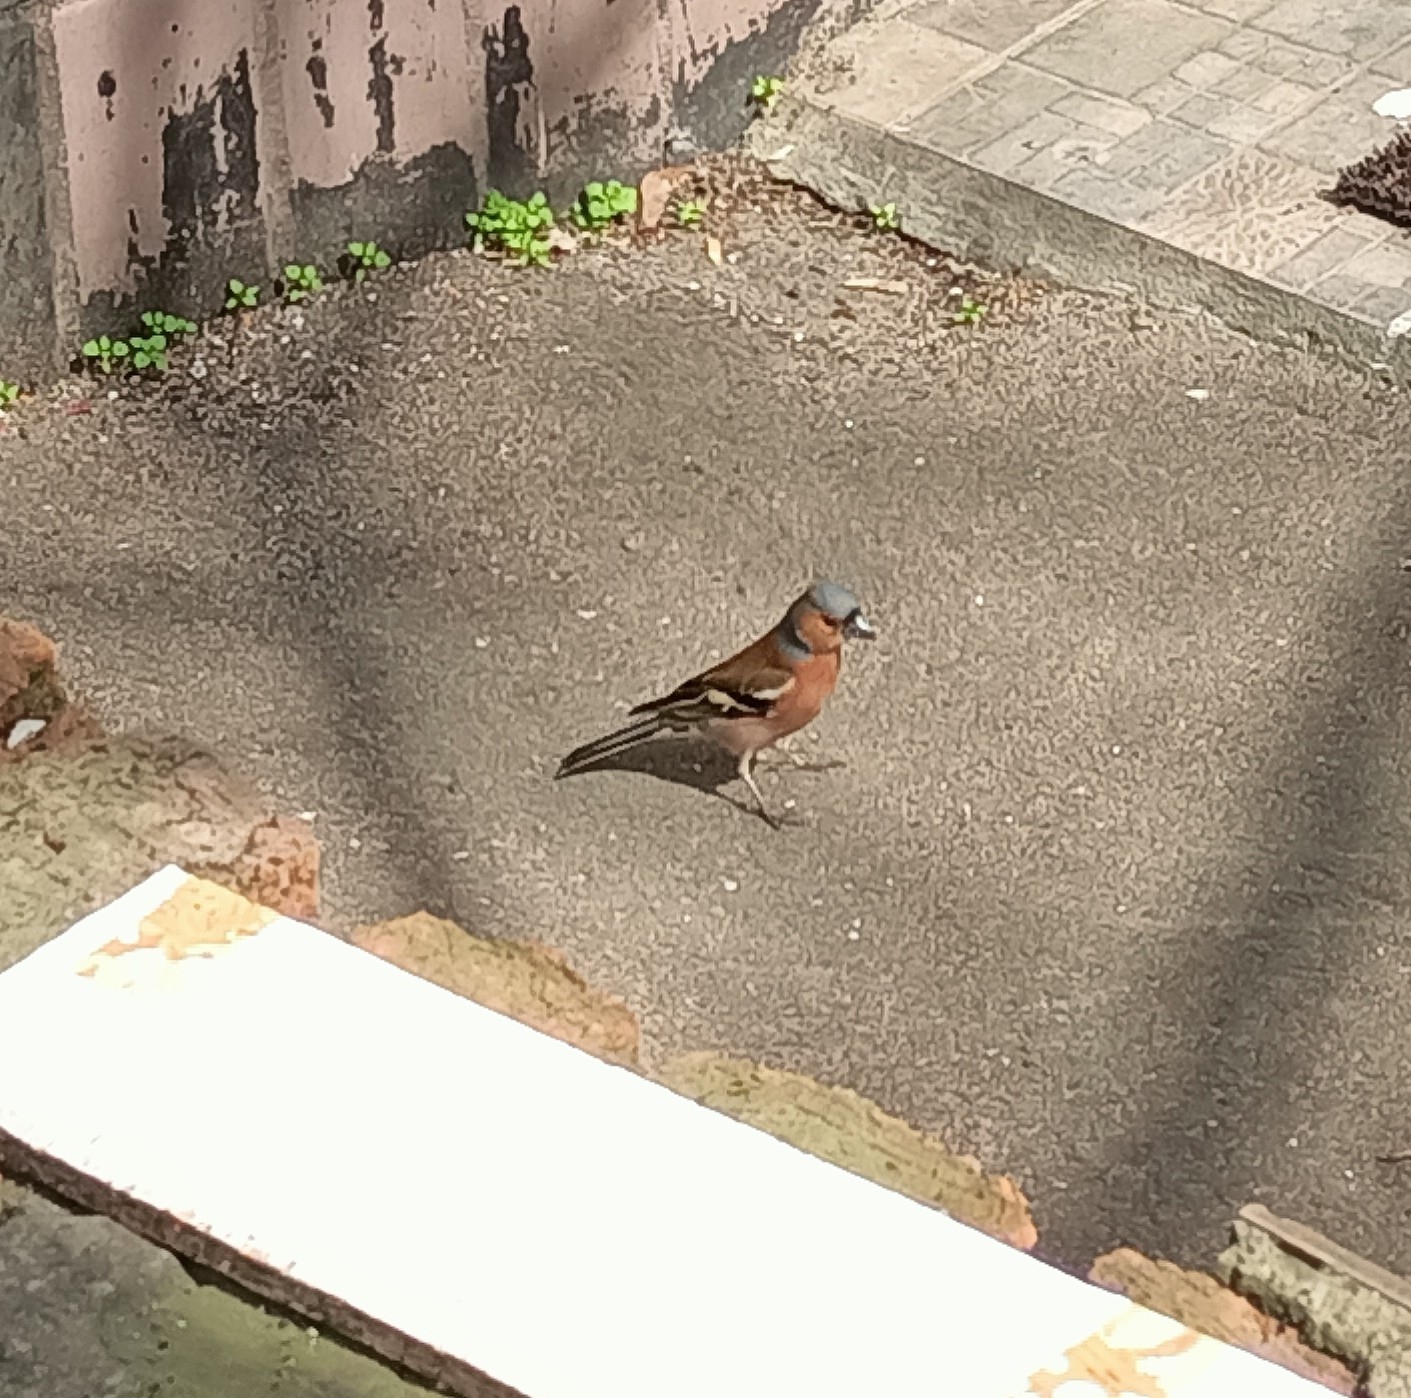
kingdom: Animalia
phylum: Chordata
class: Aves
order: Passeriformes
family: Fringillidae
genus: Fringilla
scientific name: Fringilla coelebs
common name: Common chaffinch
